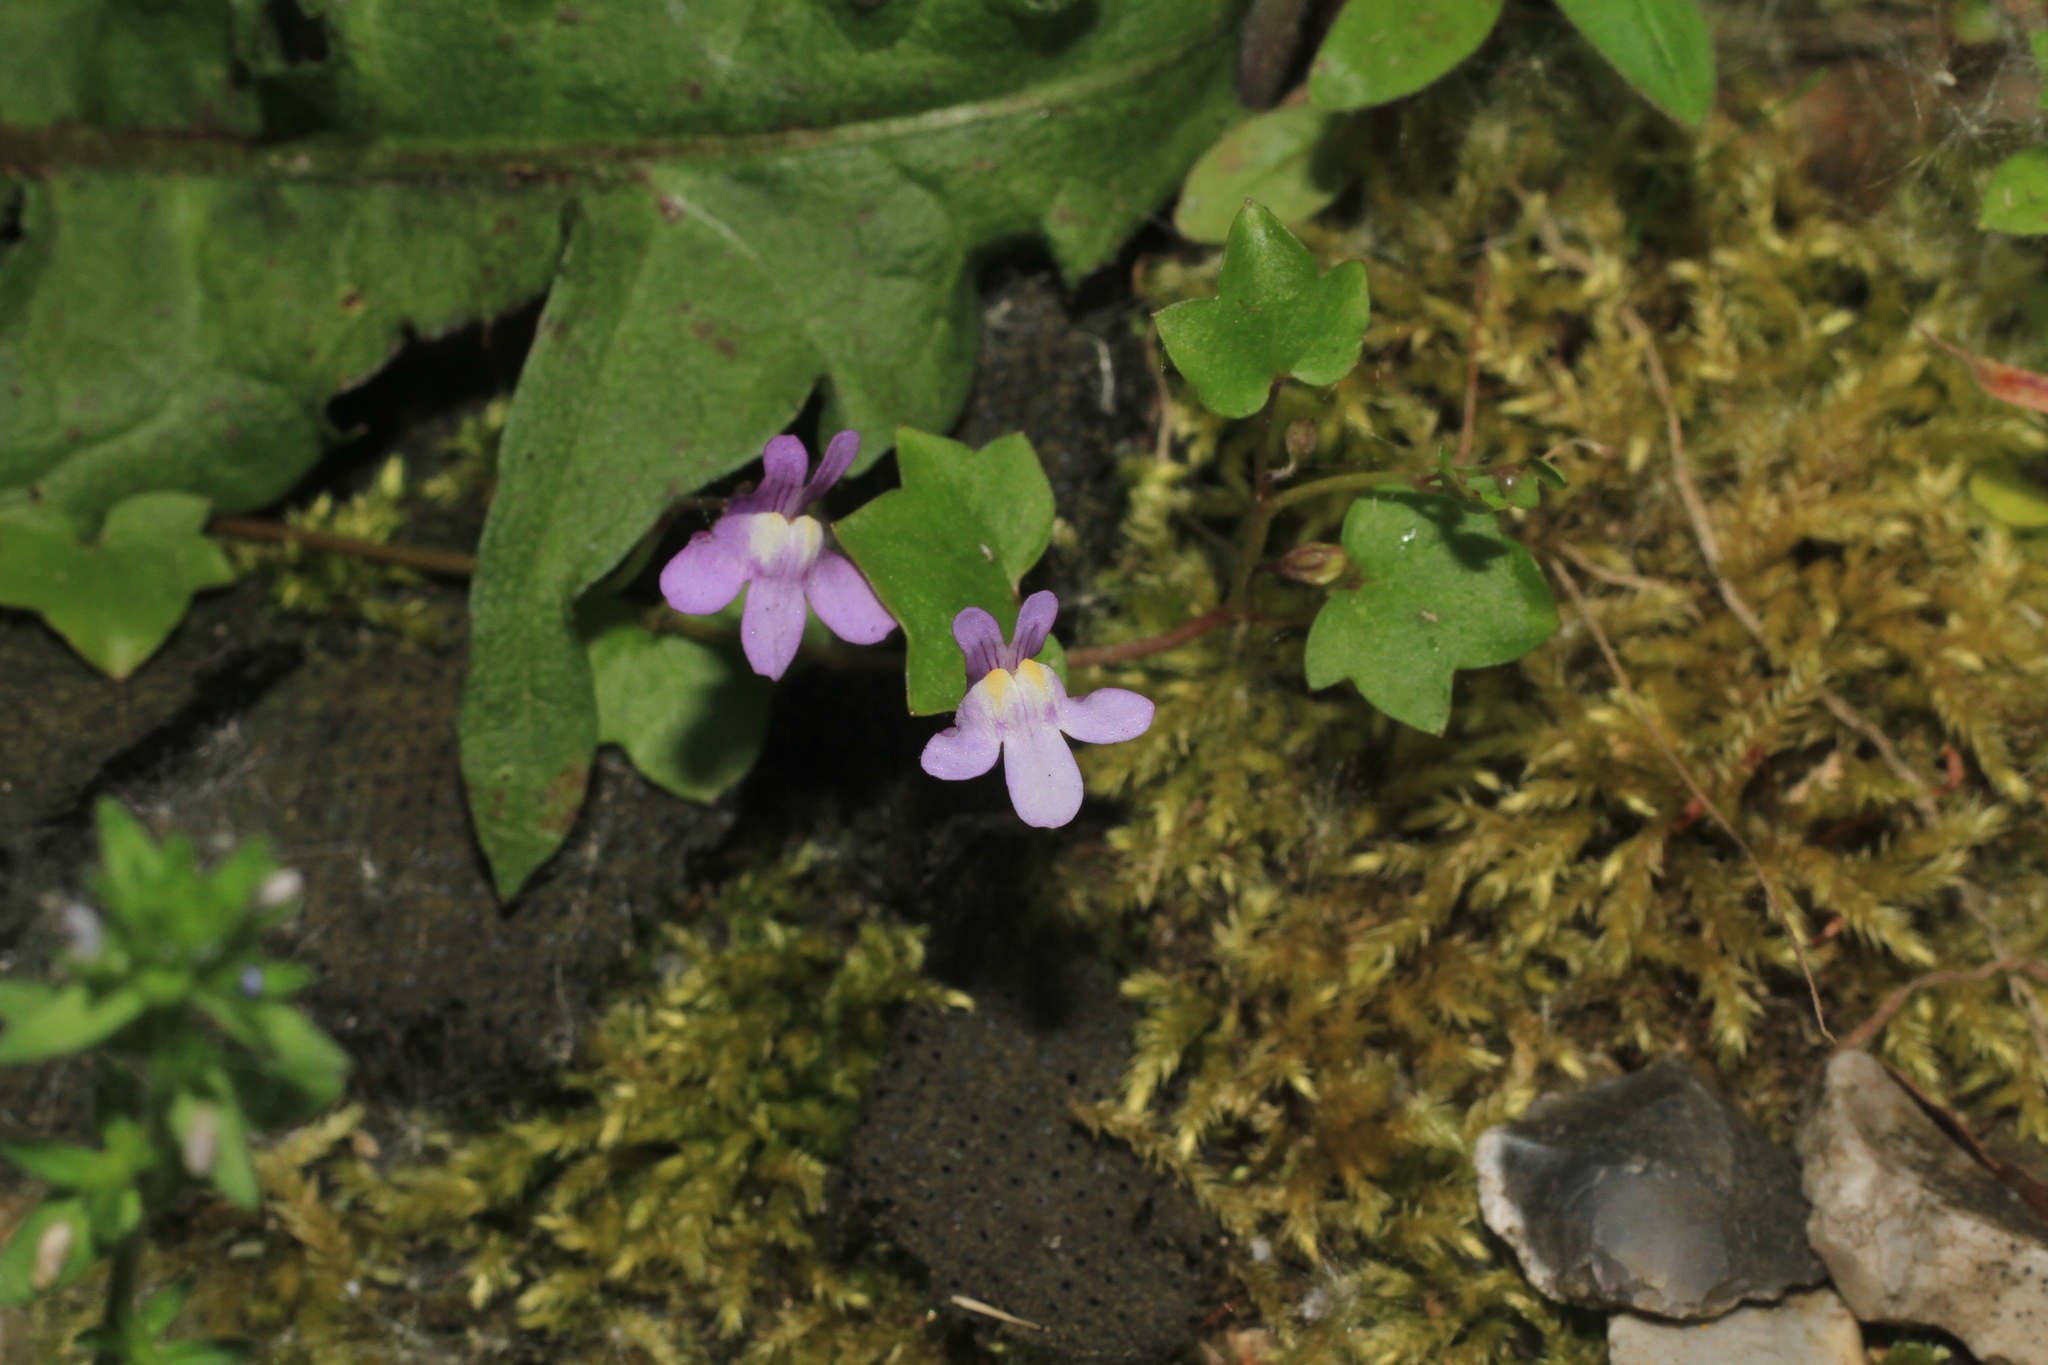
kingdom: Plantae
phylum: Tracheophyta
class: Magnoliopsida
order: Lamiales
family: Plantaginaceae
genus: Cymbalaria
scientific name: Cymbalaria muralis
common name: Ivy-leaved toadflax
